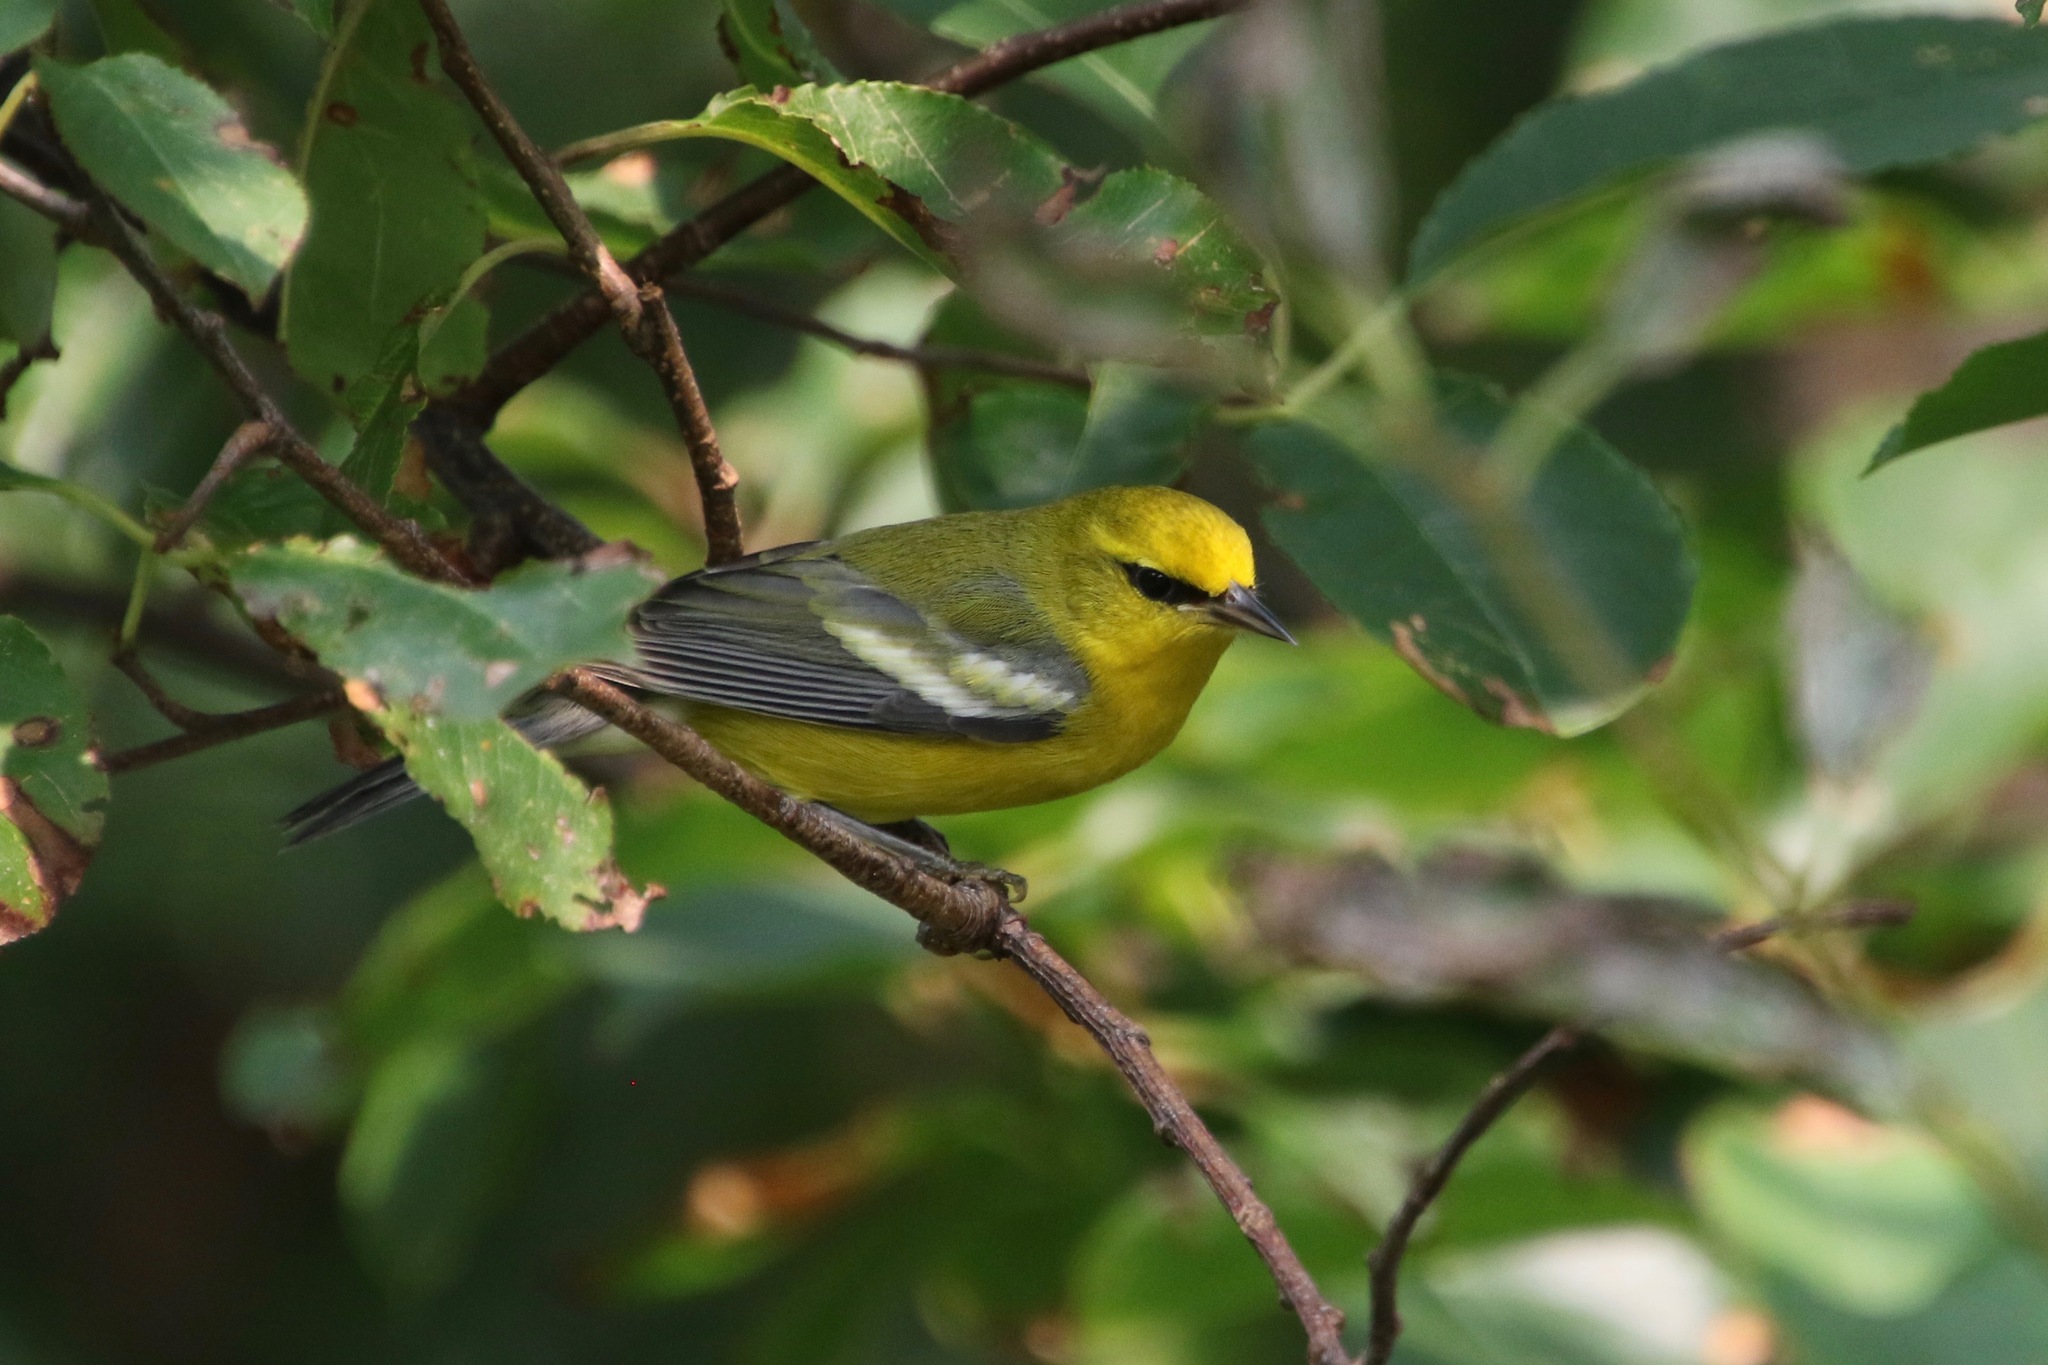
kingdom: Animalia
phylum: Chordata
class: Aves
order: Passeriformes
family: Parulidae
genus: Vermivora
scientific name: Vermivora cyanoptera
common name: Blue-winged warbler
